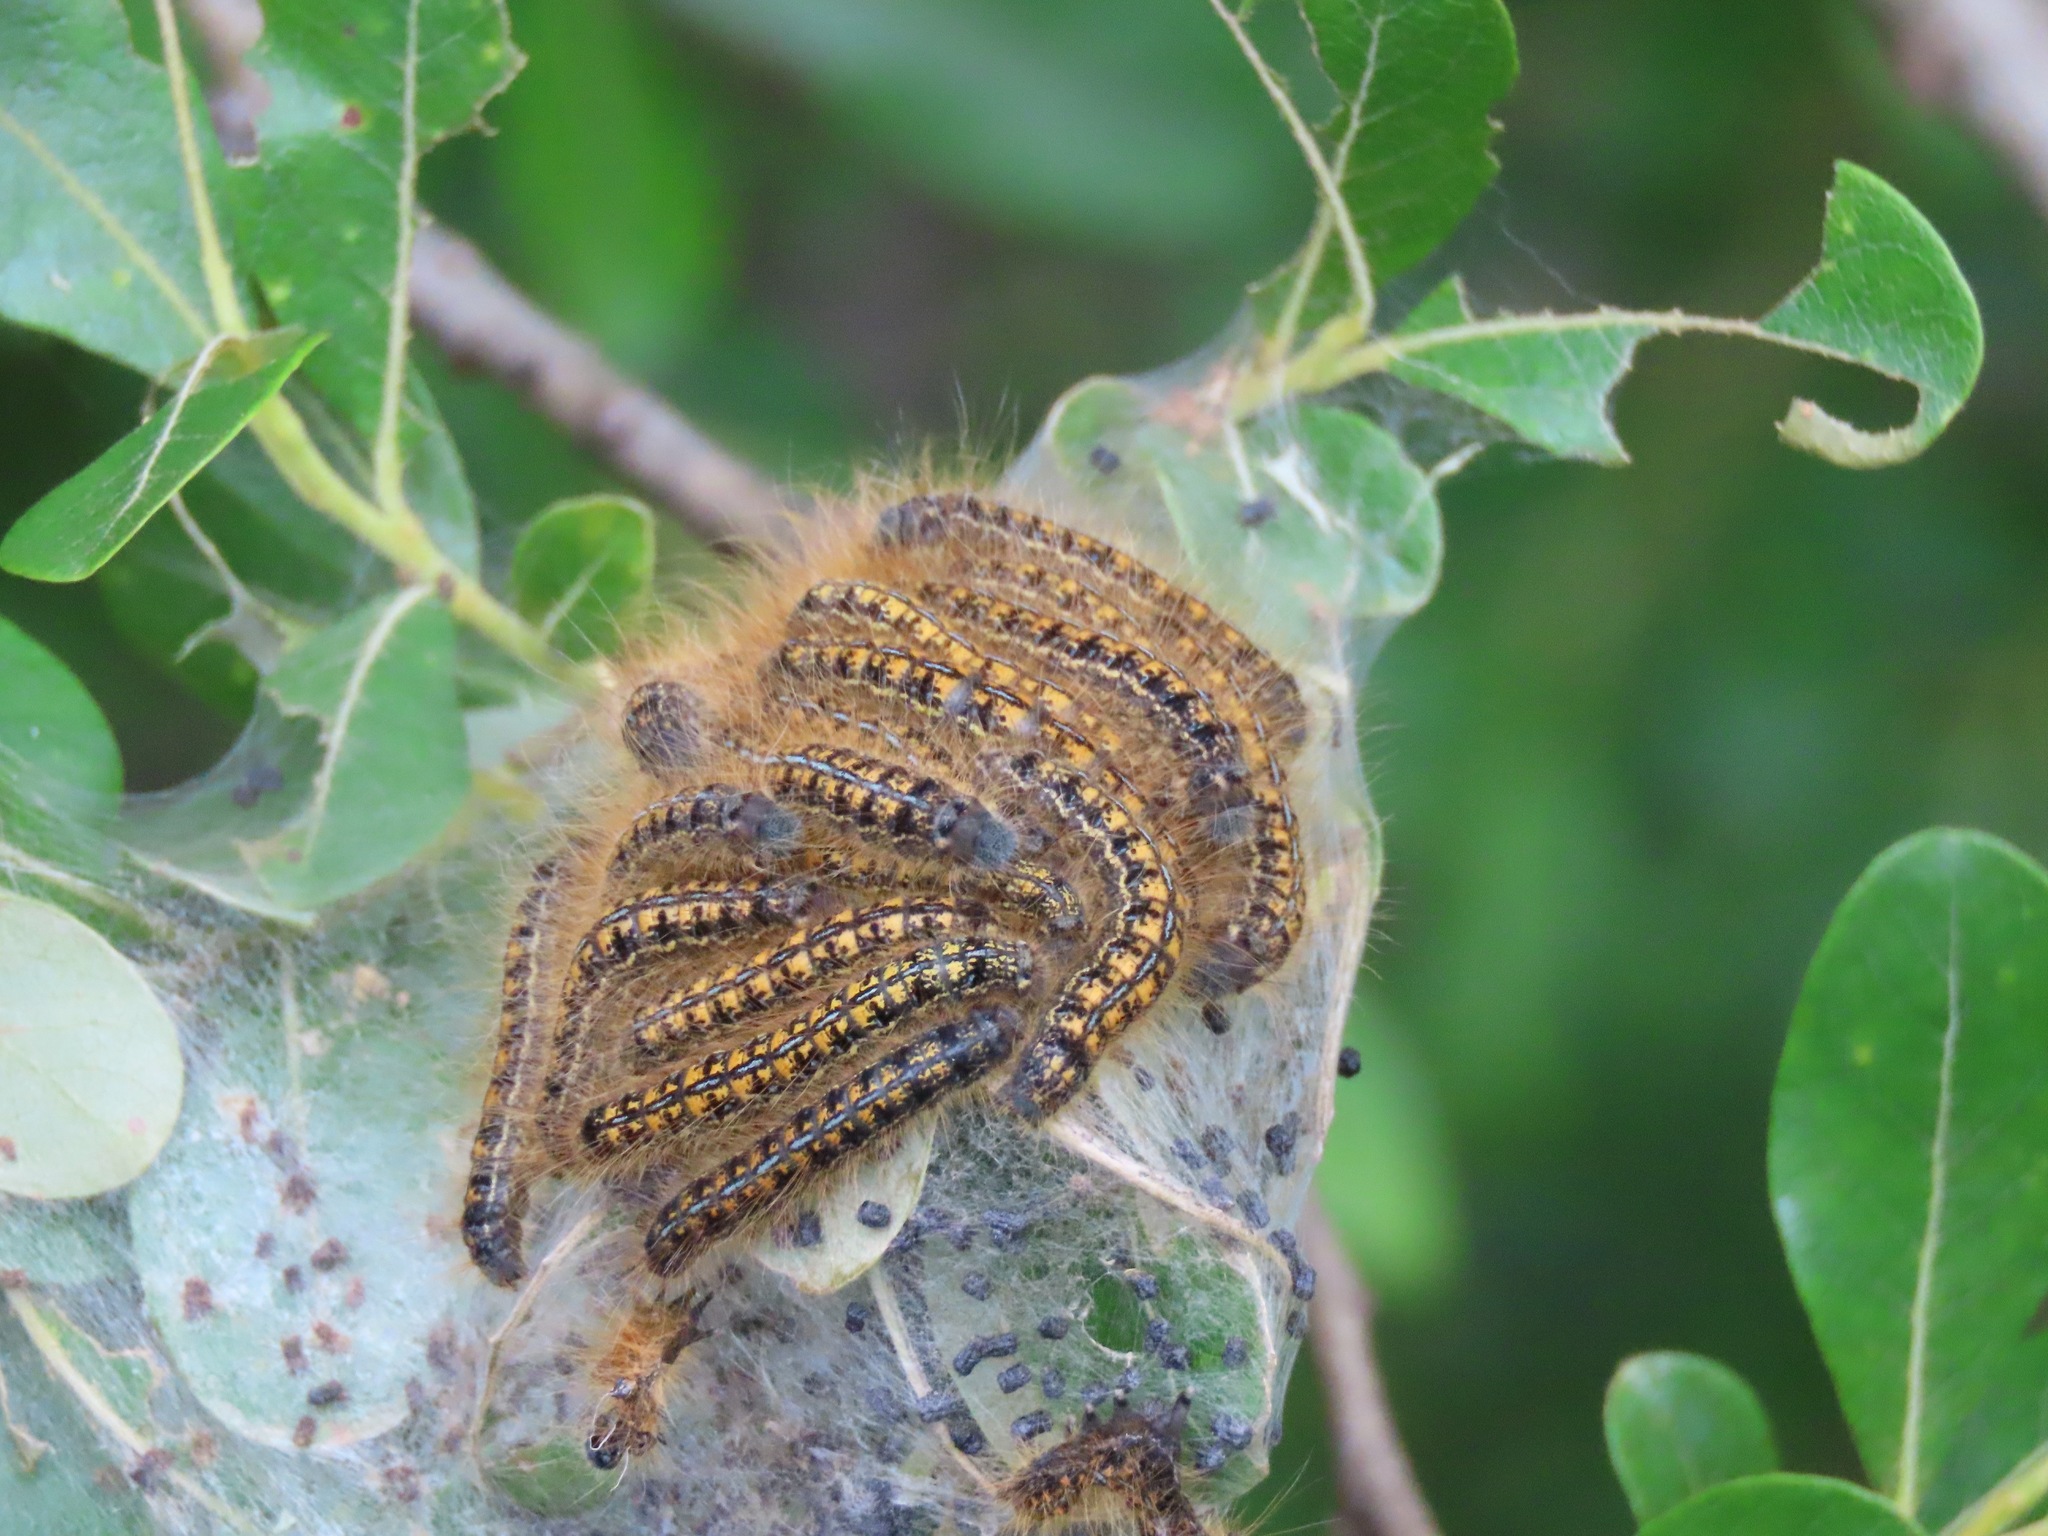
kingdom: Animalia
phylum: Arthropoda
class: Insecta
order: Lepidoptera
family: Lasiocampidae
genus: Malacosoma
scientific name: Malacosoma californica
